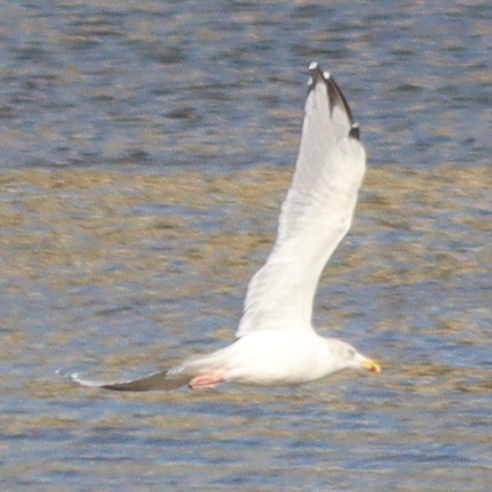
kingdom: Animalia
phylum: Chordata
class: Aves
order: Charadriiformes
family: Laridae
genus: Larus
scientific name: Larus argentatus
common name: Herring gull
